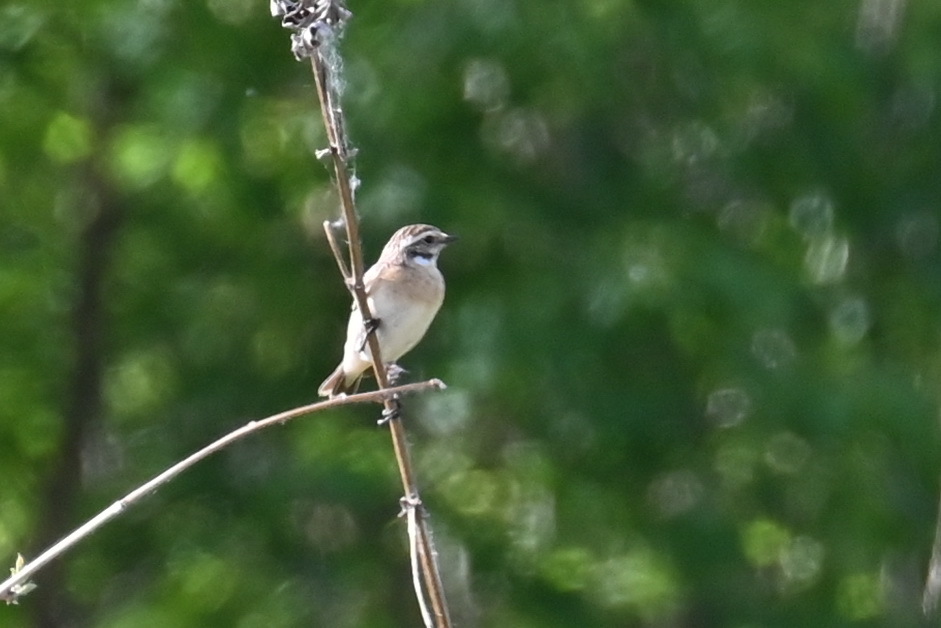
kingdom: Animalia
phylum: Chordata
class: Aves
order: Passeriformes
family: Muscicapidae
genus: Saxicola
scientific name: Saxicola rubetra
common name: Whinchat
